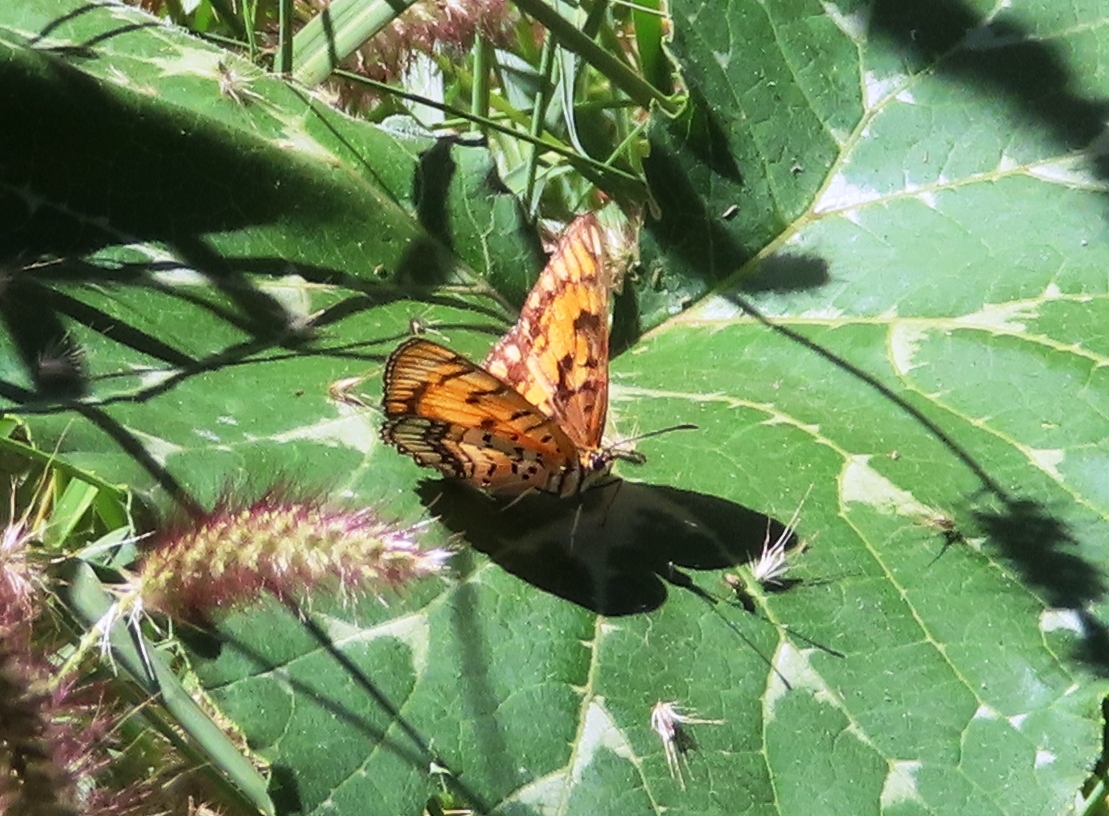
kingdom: Animalia
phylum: Arthropoda
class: Insecta
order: Lepidoptera
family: Nymphalidae
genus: Byblia
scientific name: Byblia ilithyia
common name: Spotted joker
